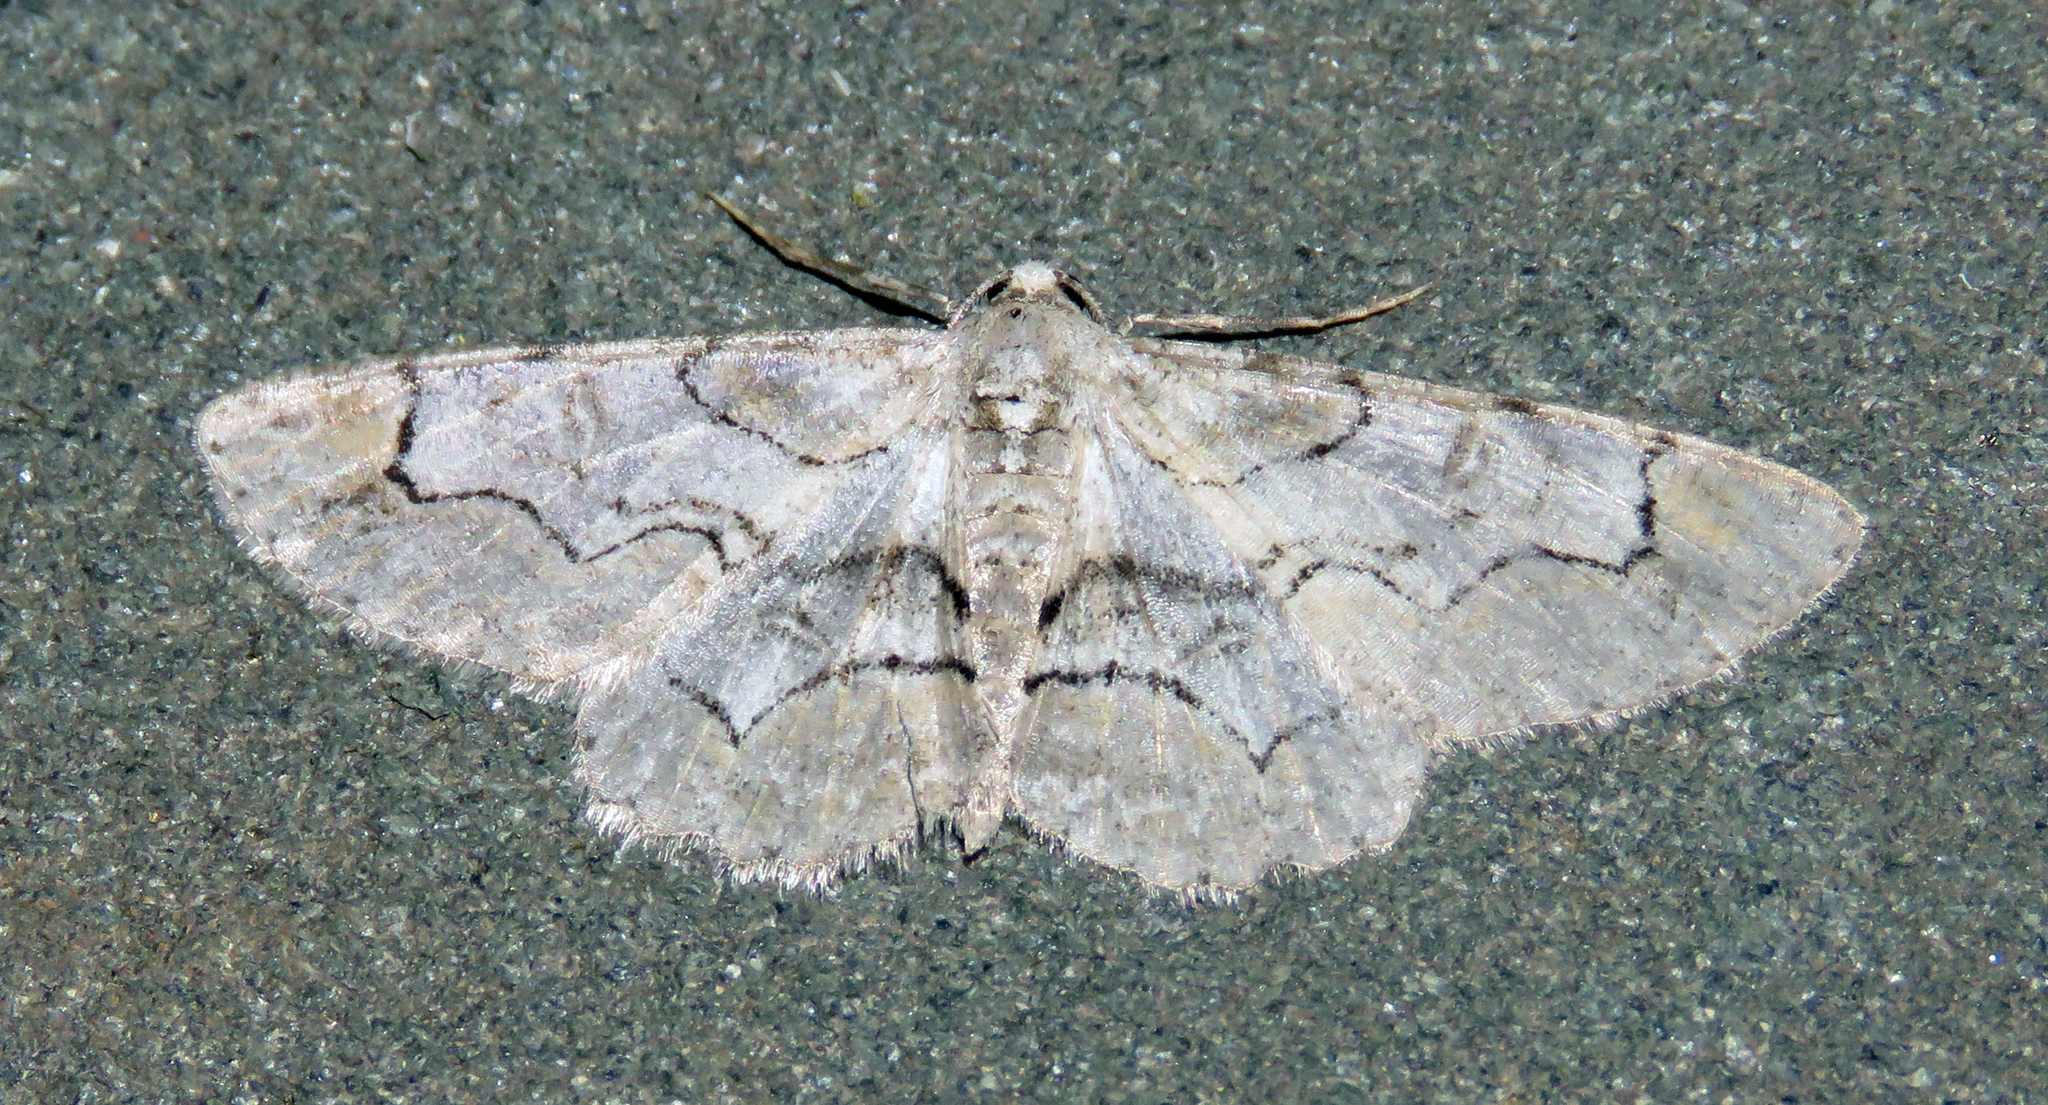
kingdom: Animalia
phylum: Arthropoda
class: Insecta
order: Lepidoptera
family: Geometridae
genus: Iridopsis
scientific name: Iridopsis larvaria
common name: Bent-line gray
